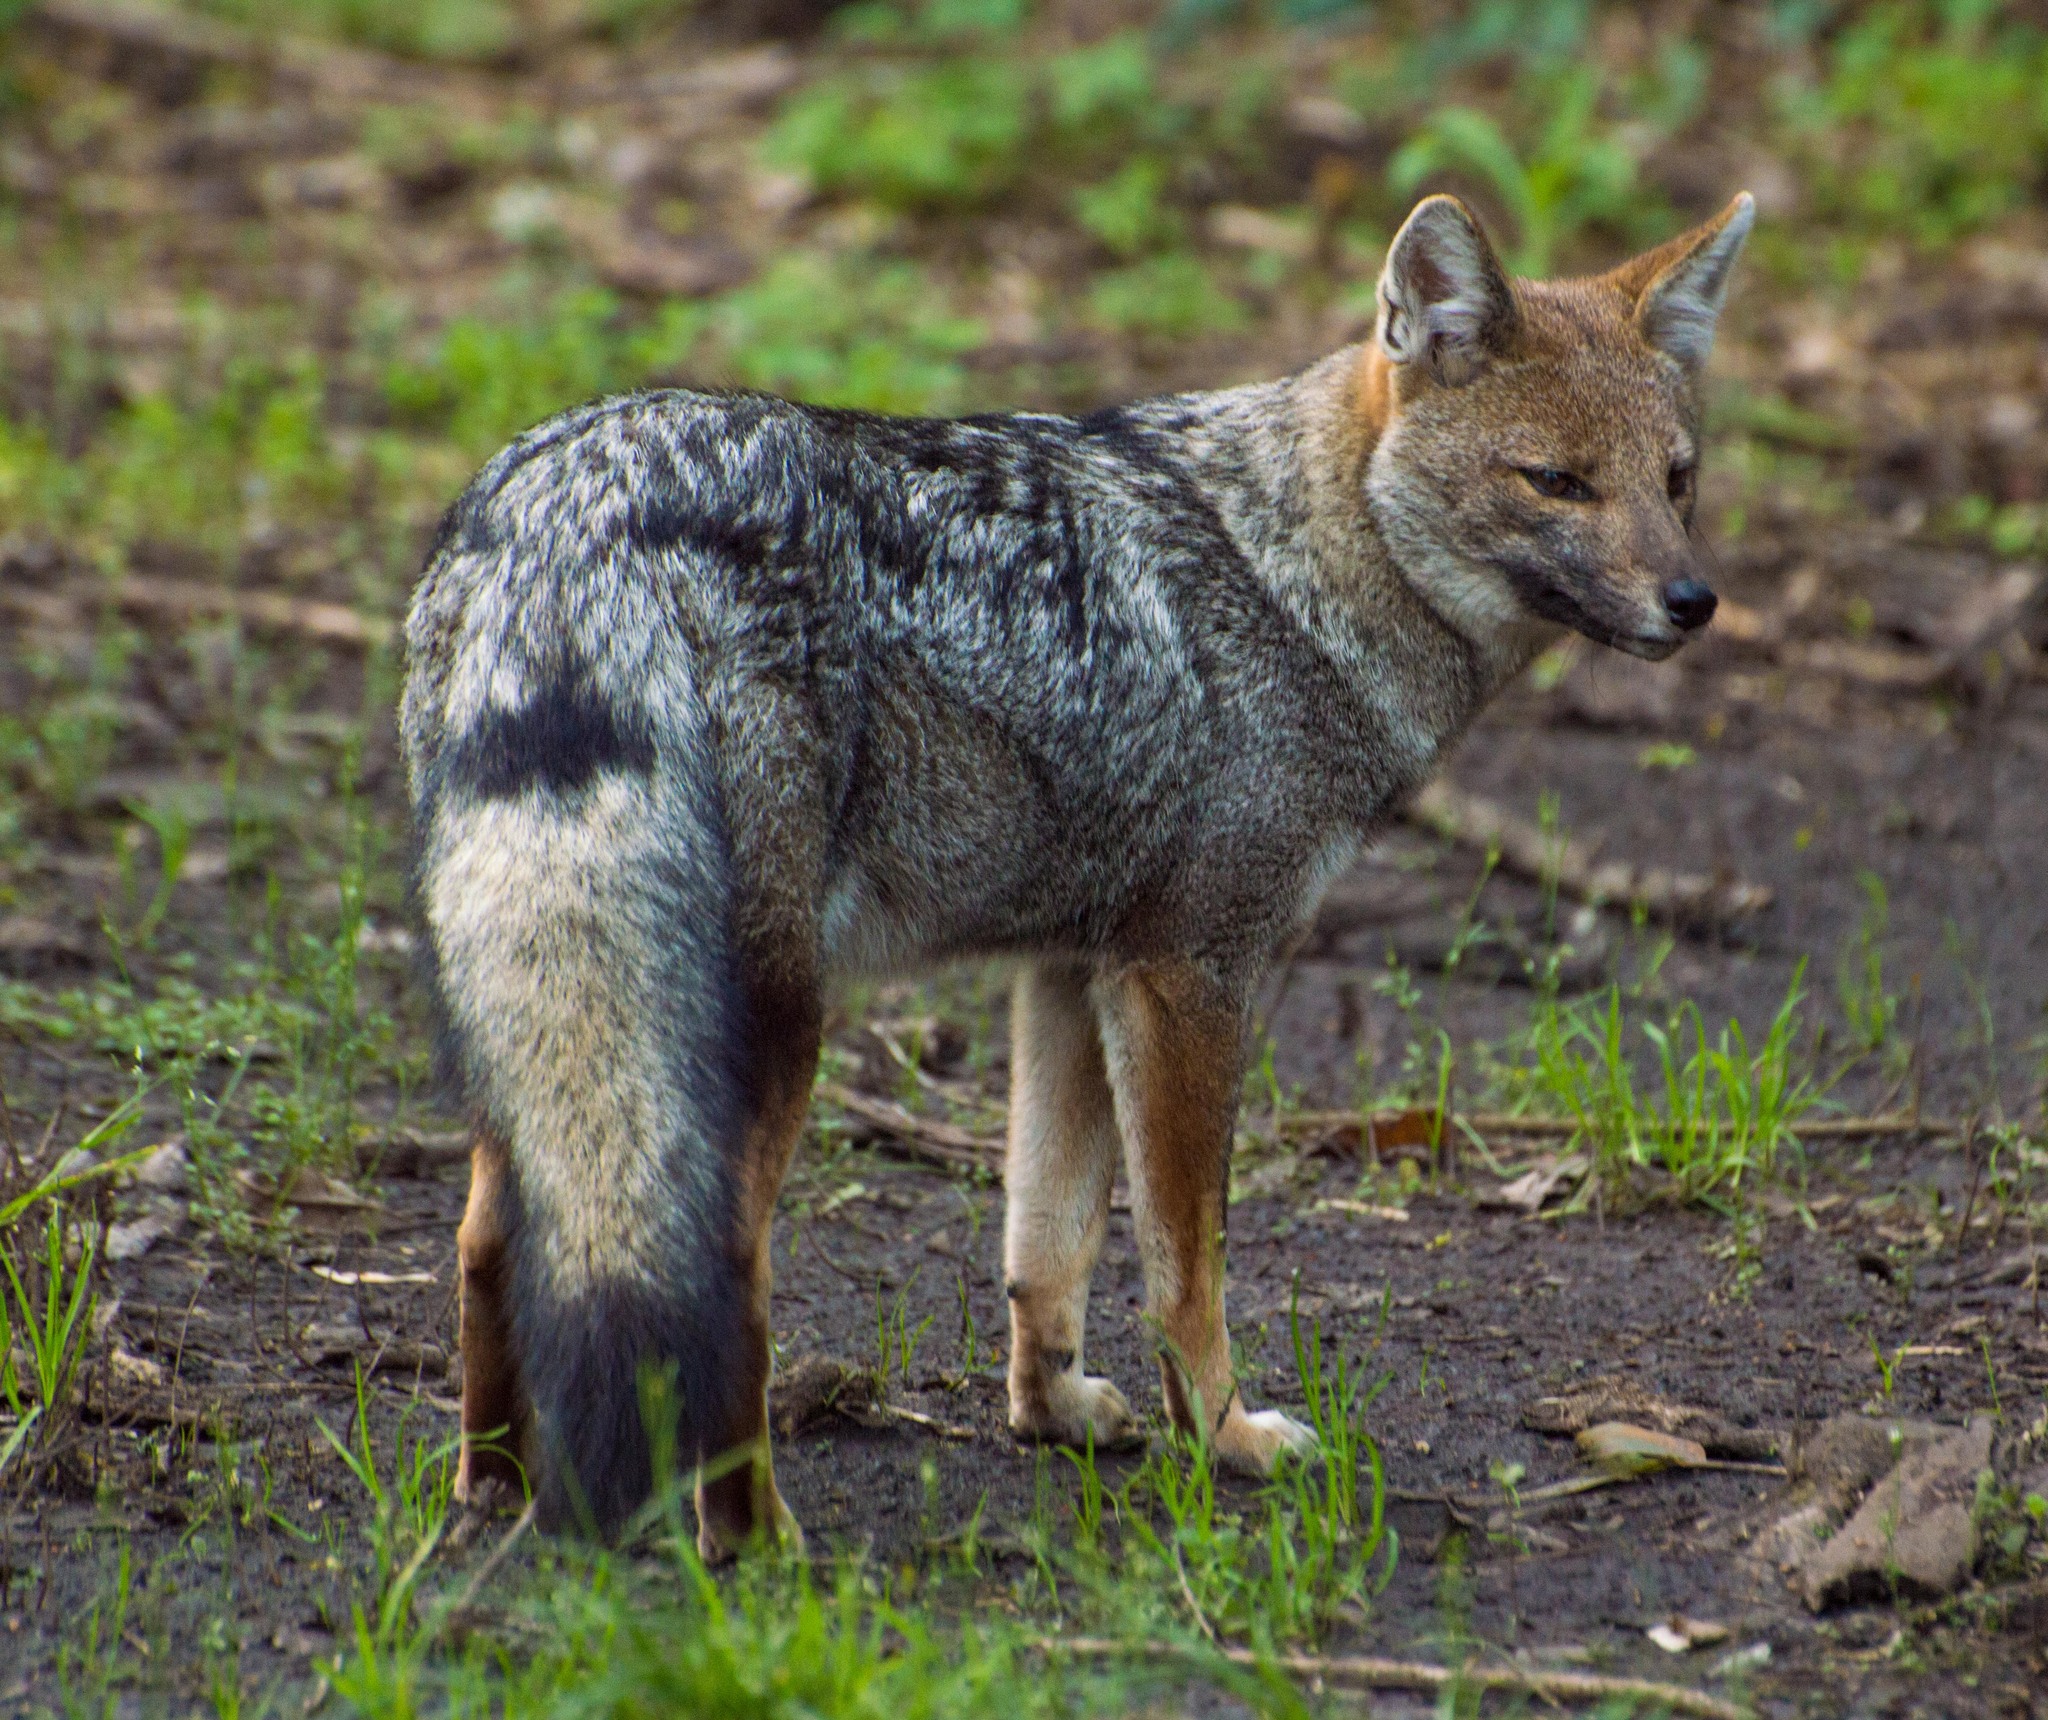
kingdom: Animalia
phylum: Chordata
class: Mammalia
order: Carnivora
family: Canidae
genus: Lycalopex
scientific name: Lycalopex gymnocercus
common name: Pampas fox
